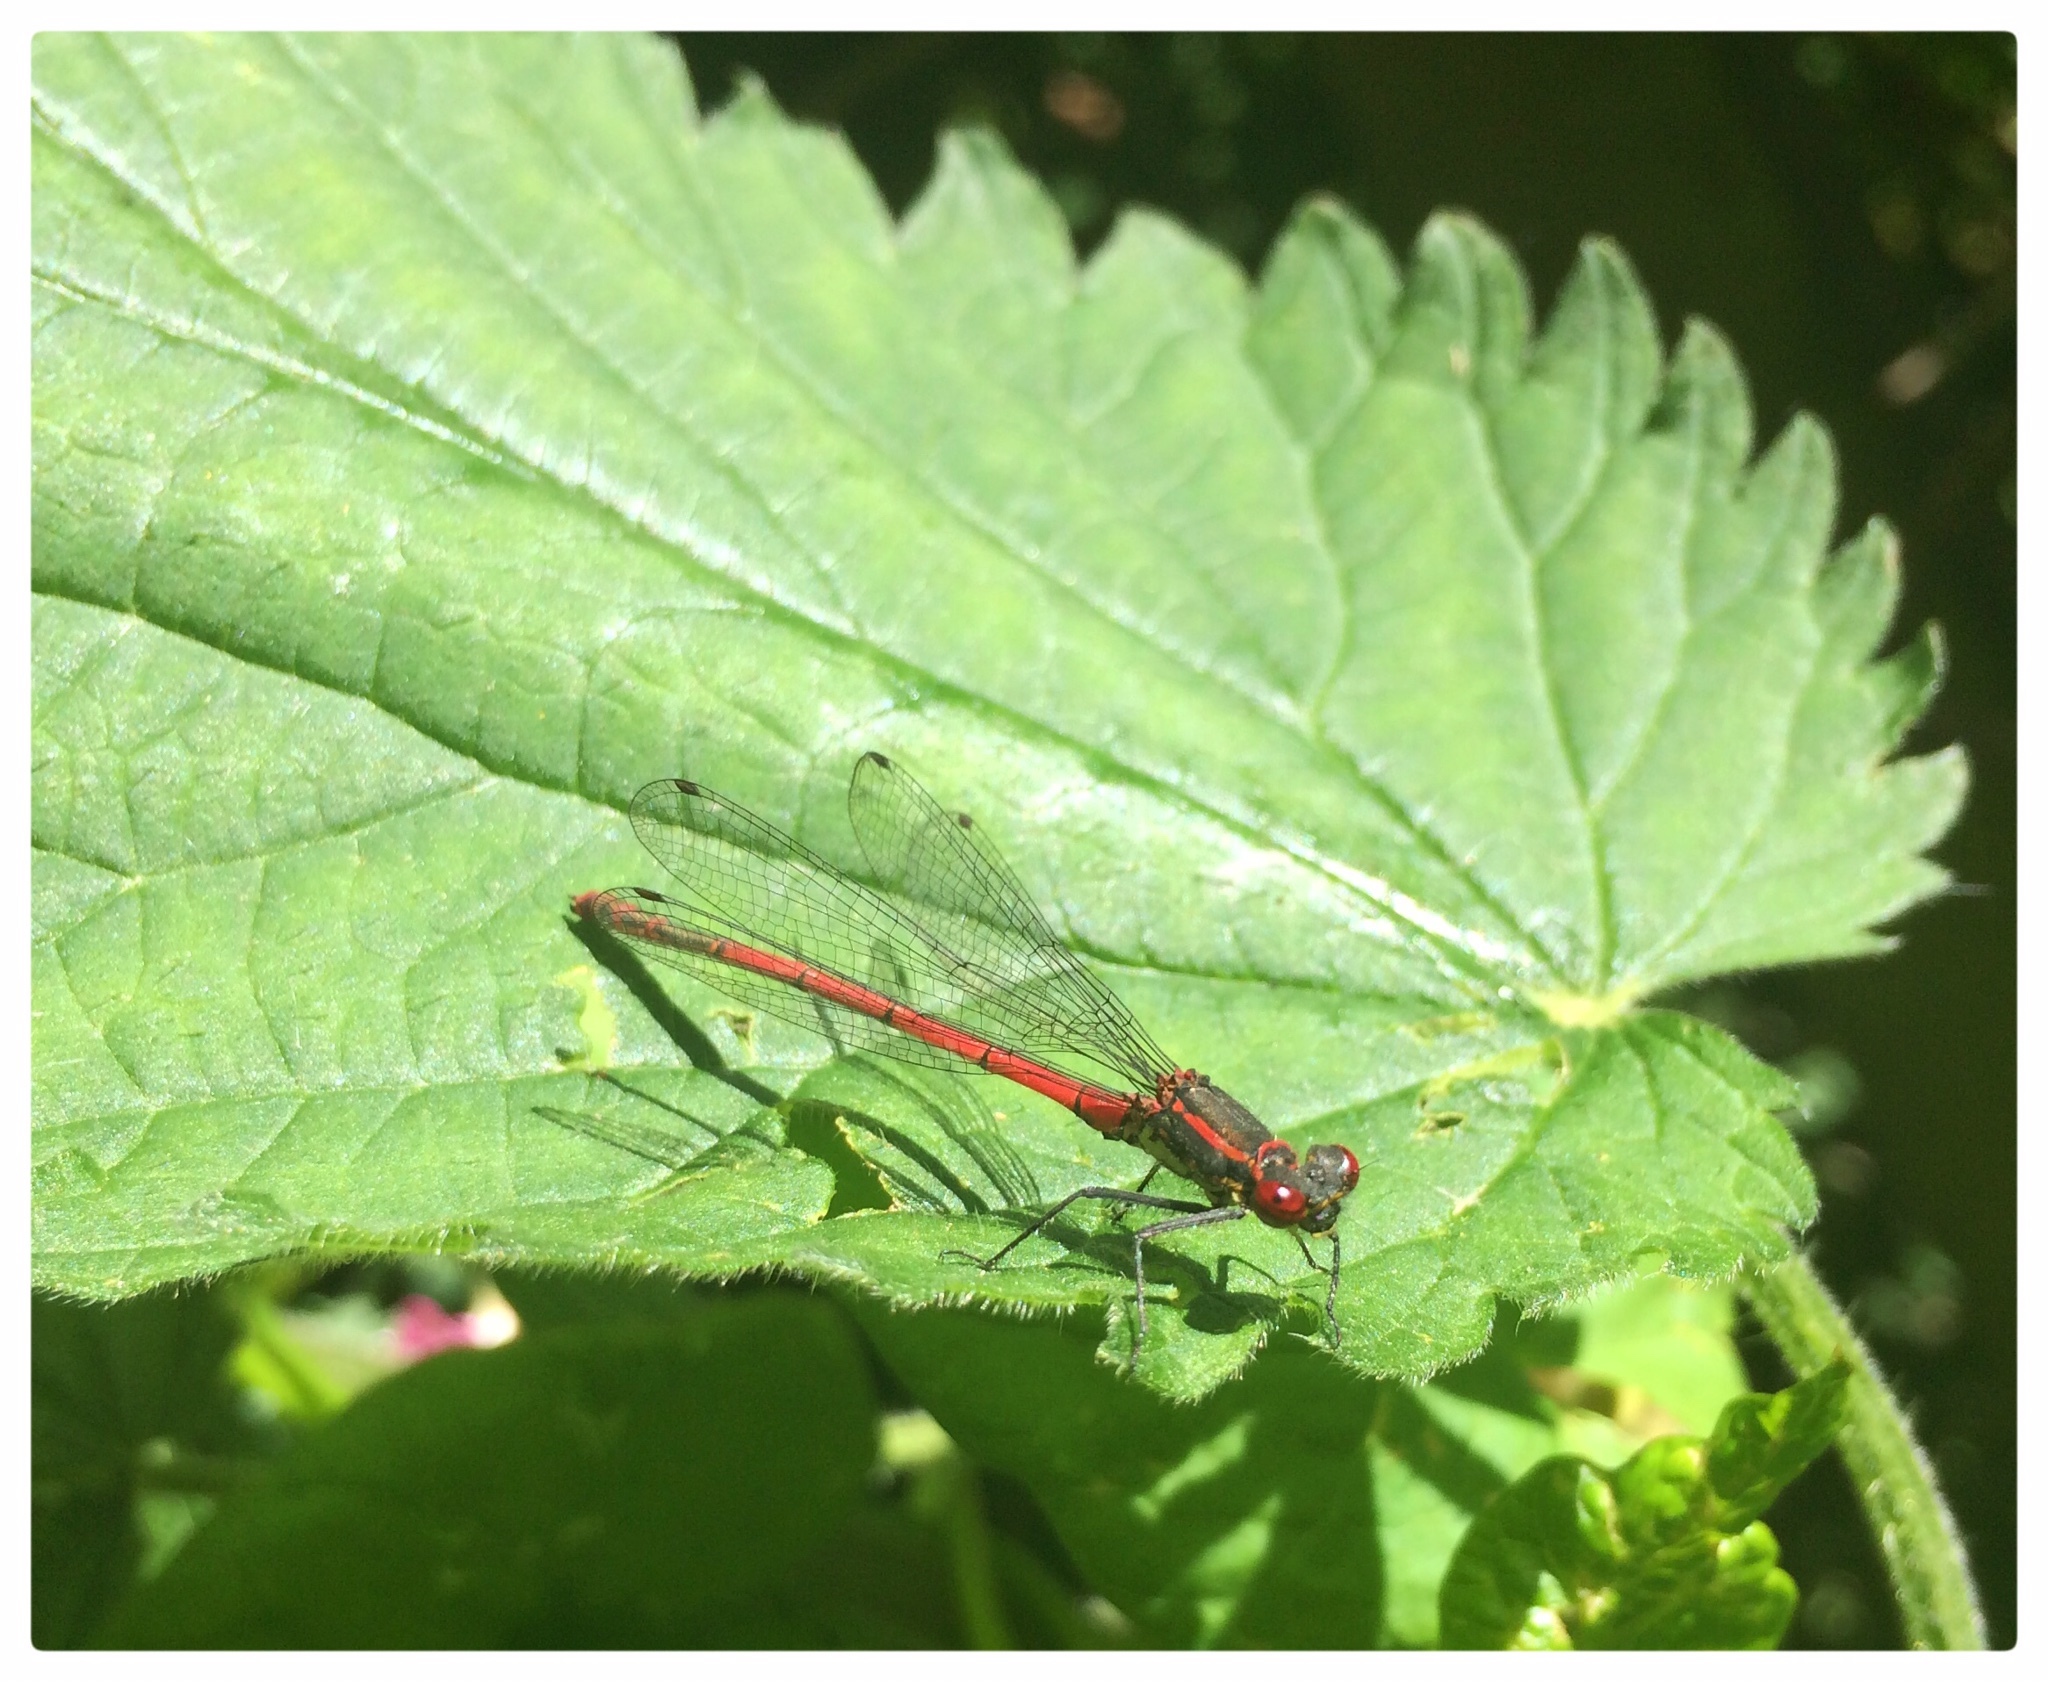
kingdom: Animalia
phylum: Arthropoda
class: Insecta
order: Odonata
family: Coenagrionidae
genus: Pyrrhosoma
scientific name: Pyrrhosoma nymphula
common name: Large red damsel
